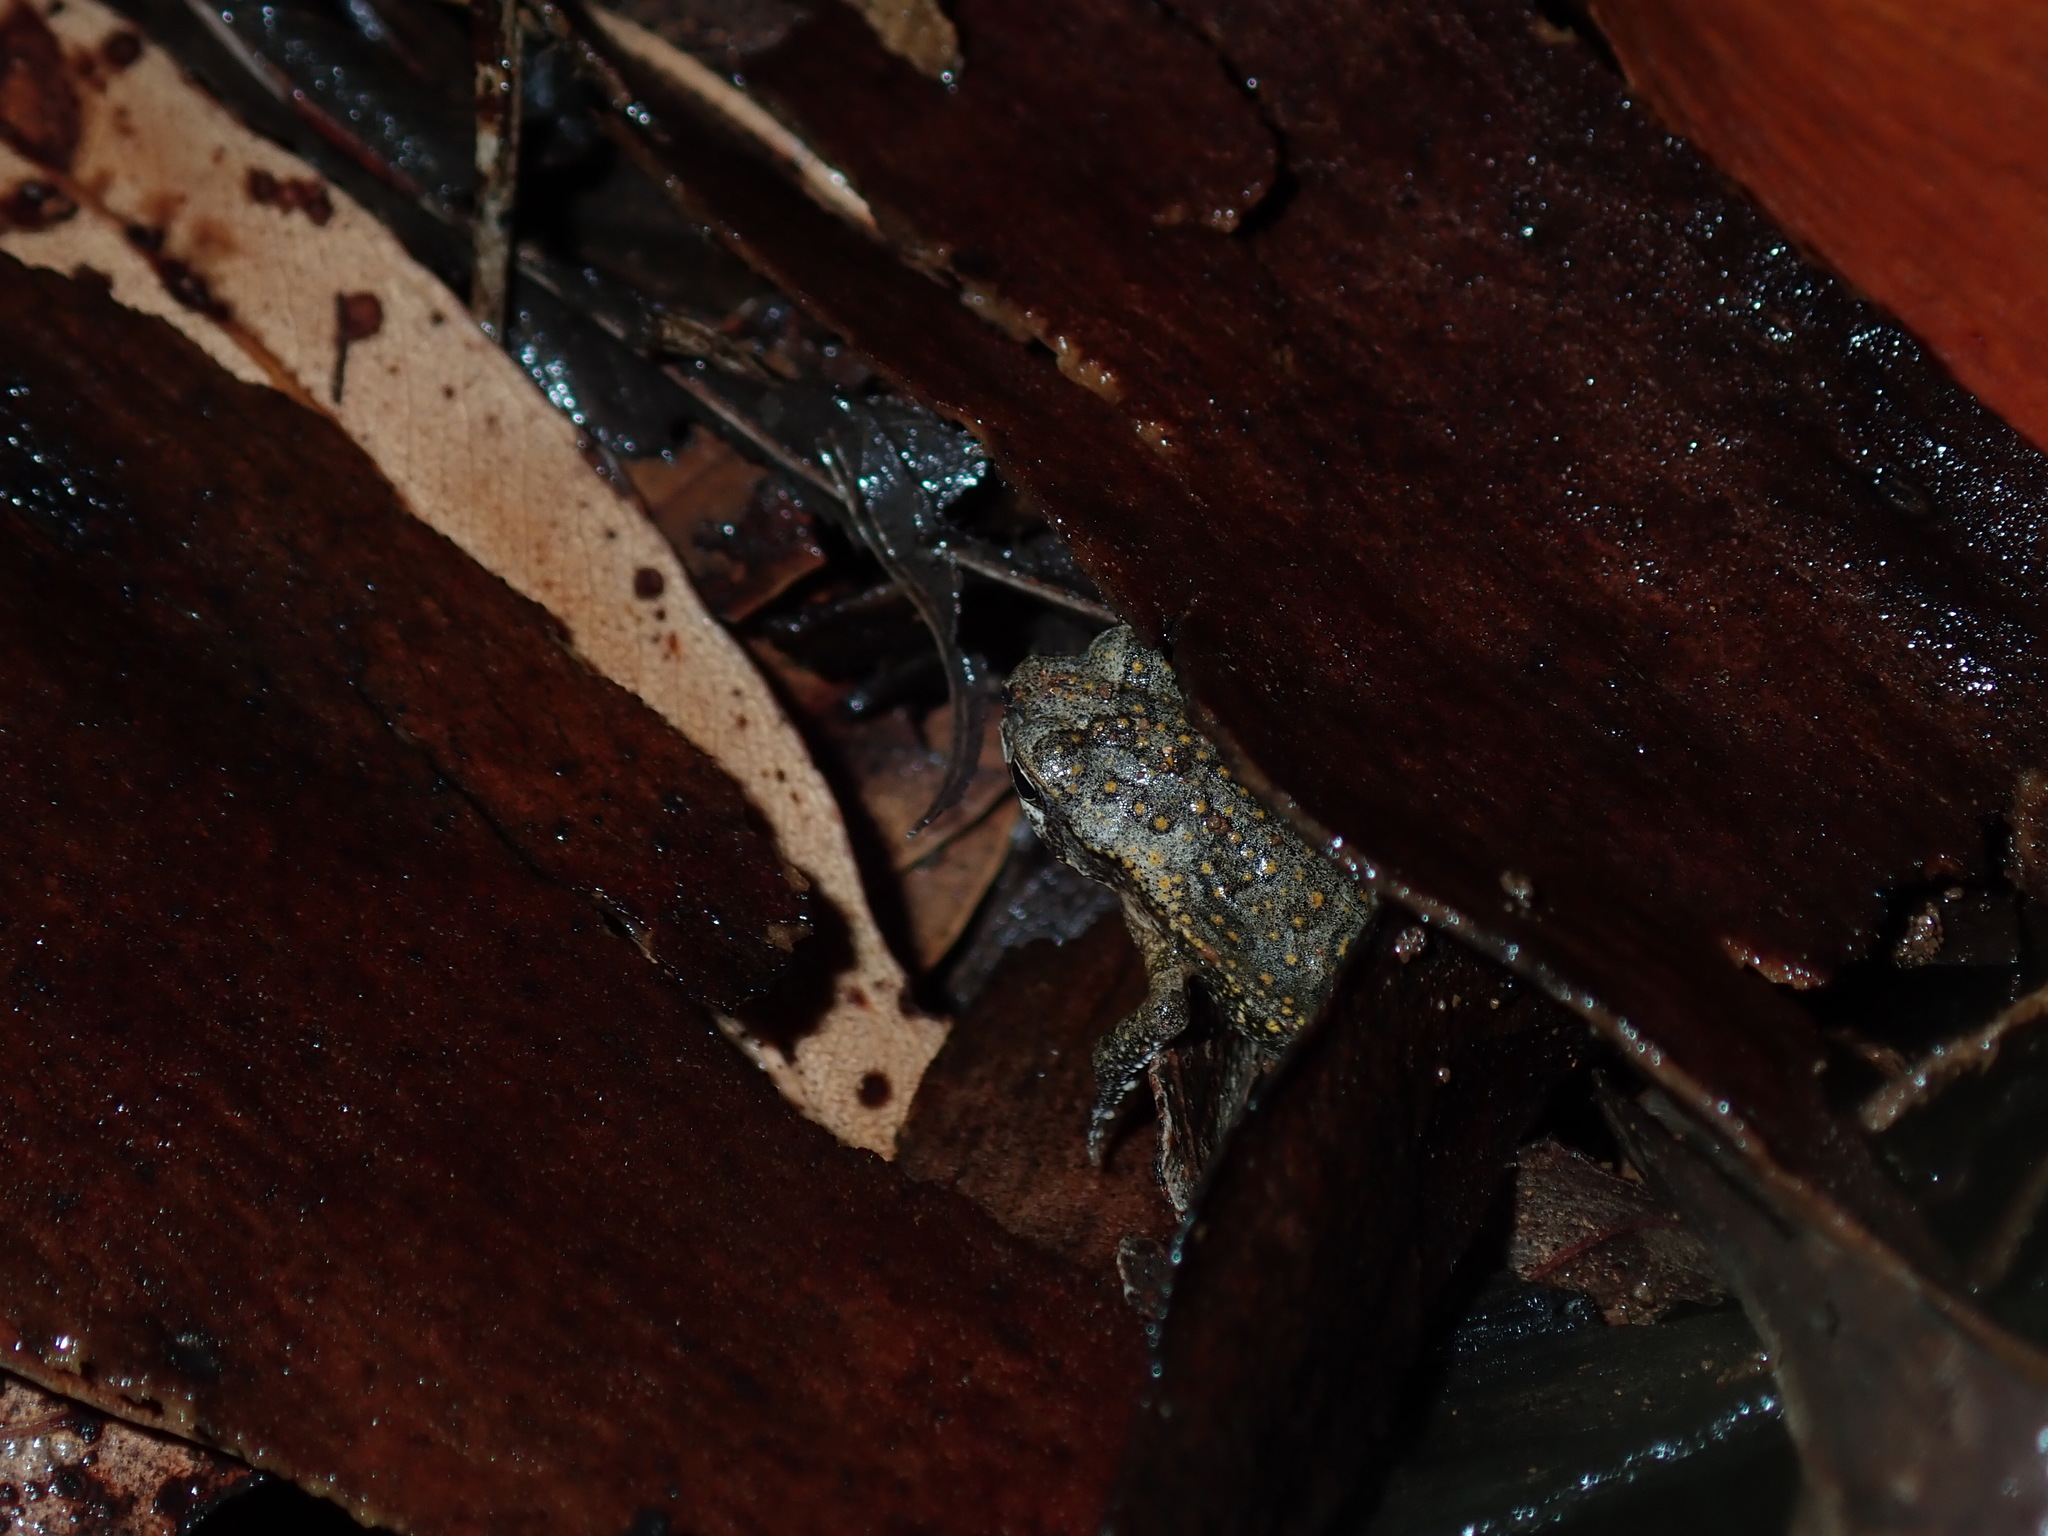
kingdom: Animalia
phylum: Chordata
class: Amphibia
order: Anura
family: Bufonidae
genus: Rhinella
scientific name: Rhinella marina
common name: Cane toad
